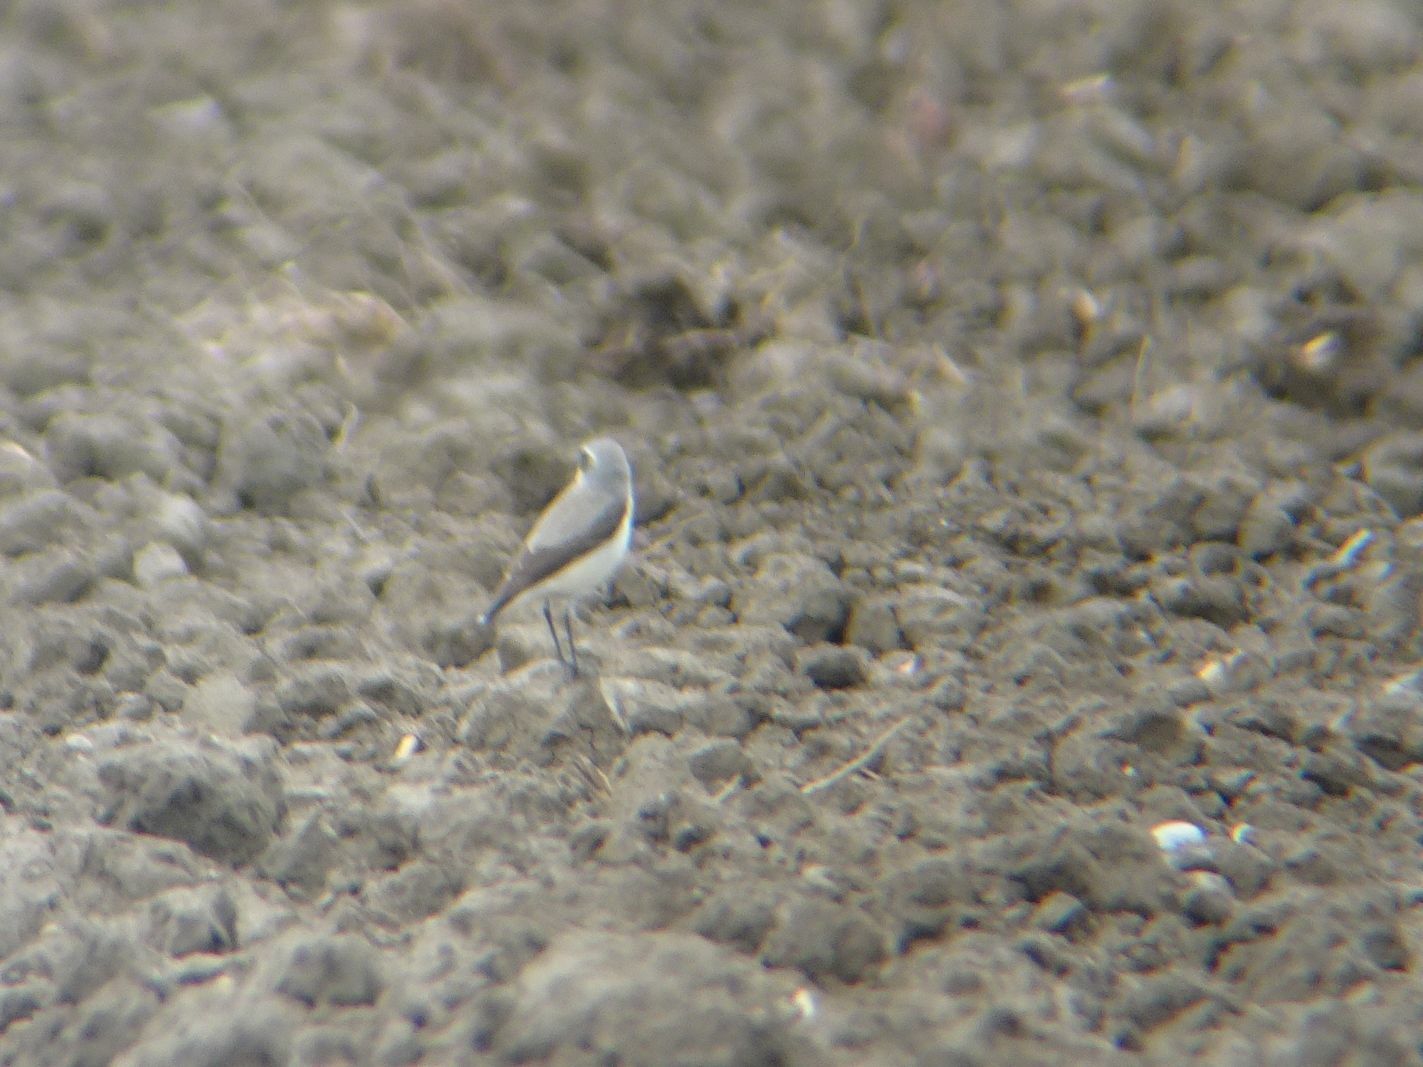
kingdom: Animalia
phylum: Chordata
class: Aves
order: Passeriformes
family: Muscicapidae
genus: Oenanthe
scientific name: Oenanthe oenanthe
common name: Northern wheatear
